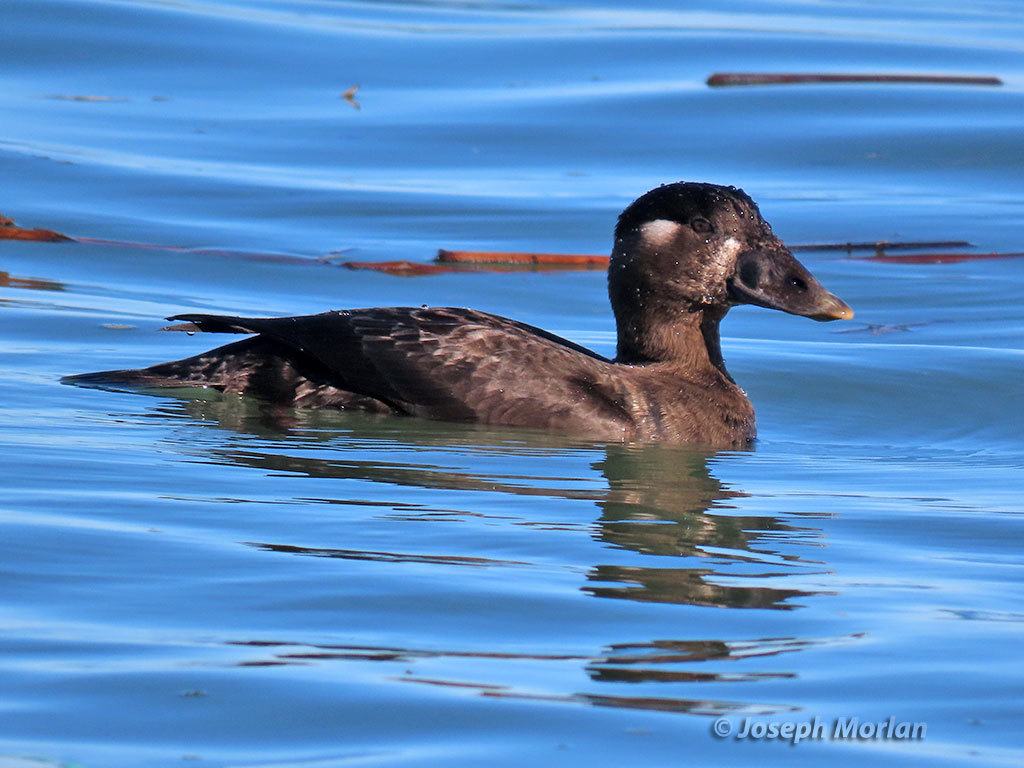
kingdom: Animalia
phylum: Chordata
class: Aves
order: Anseriformes
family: Anatidae
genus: Melanitta
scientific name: Melanitta perspicillata
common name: Surf scoter
